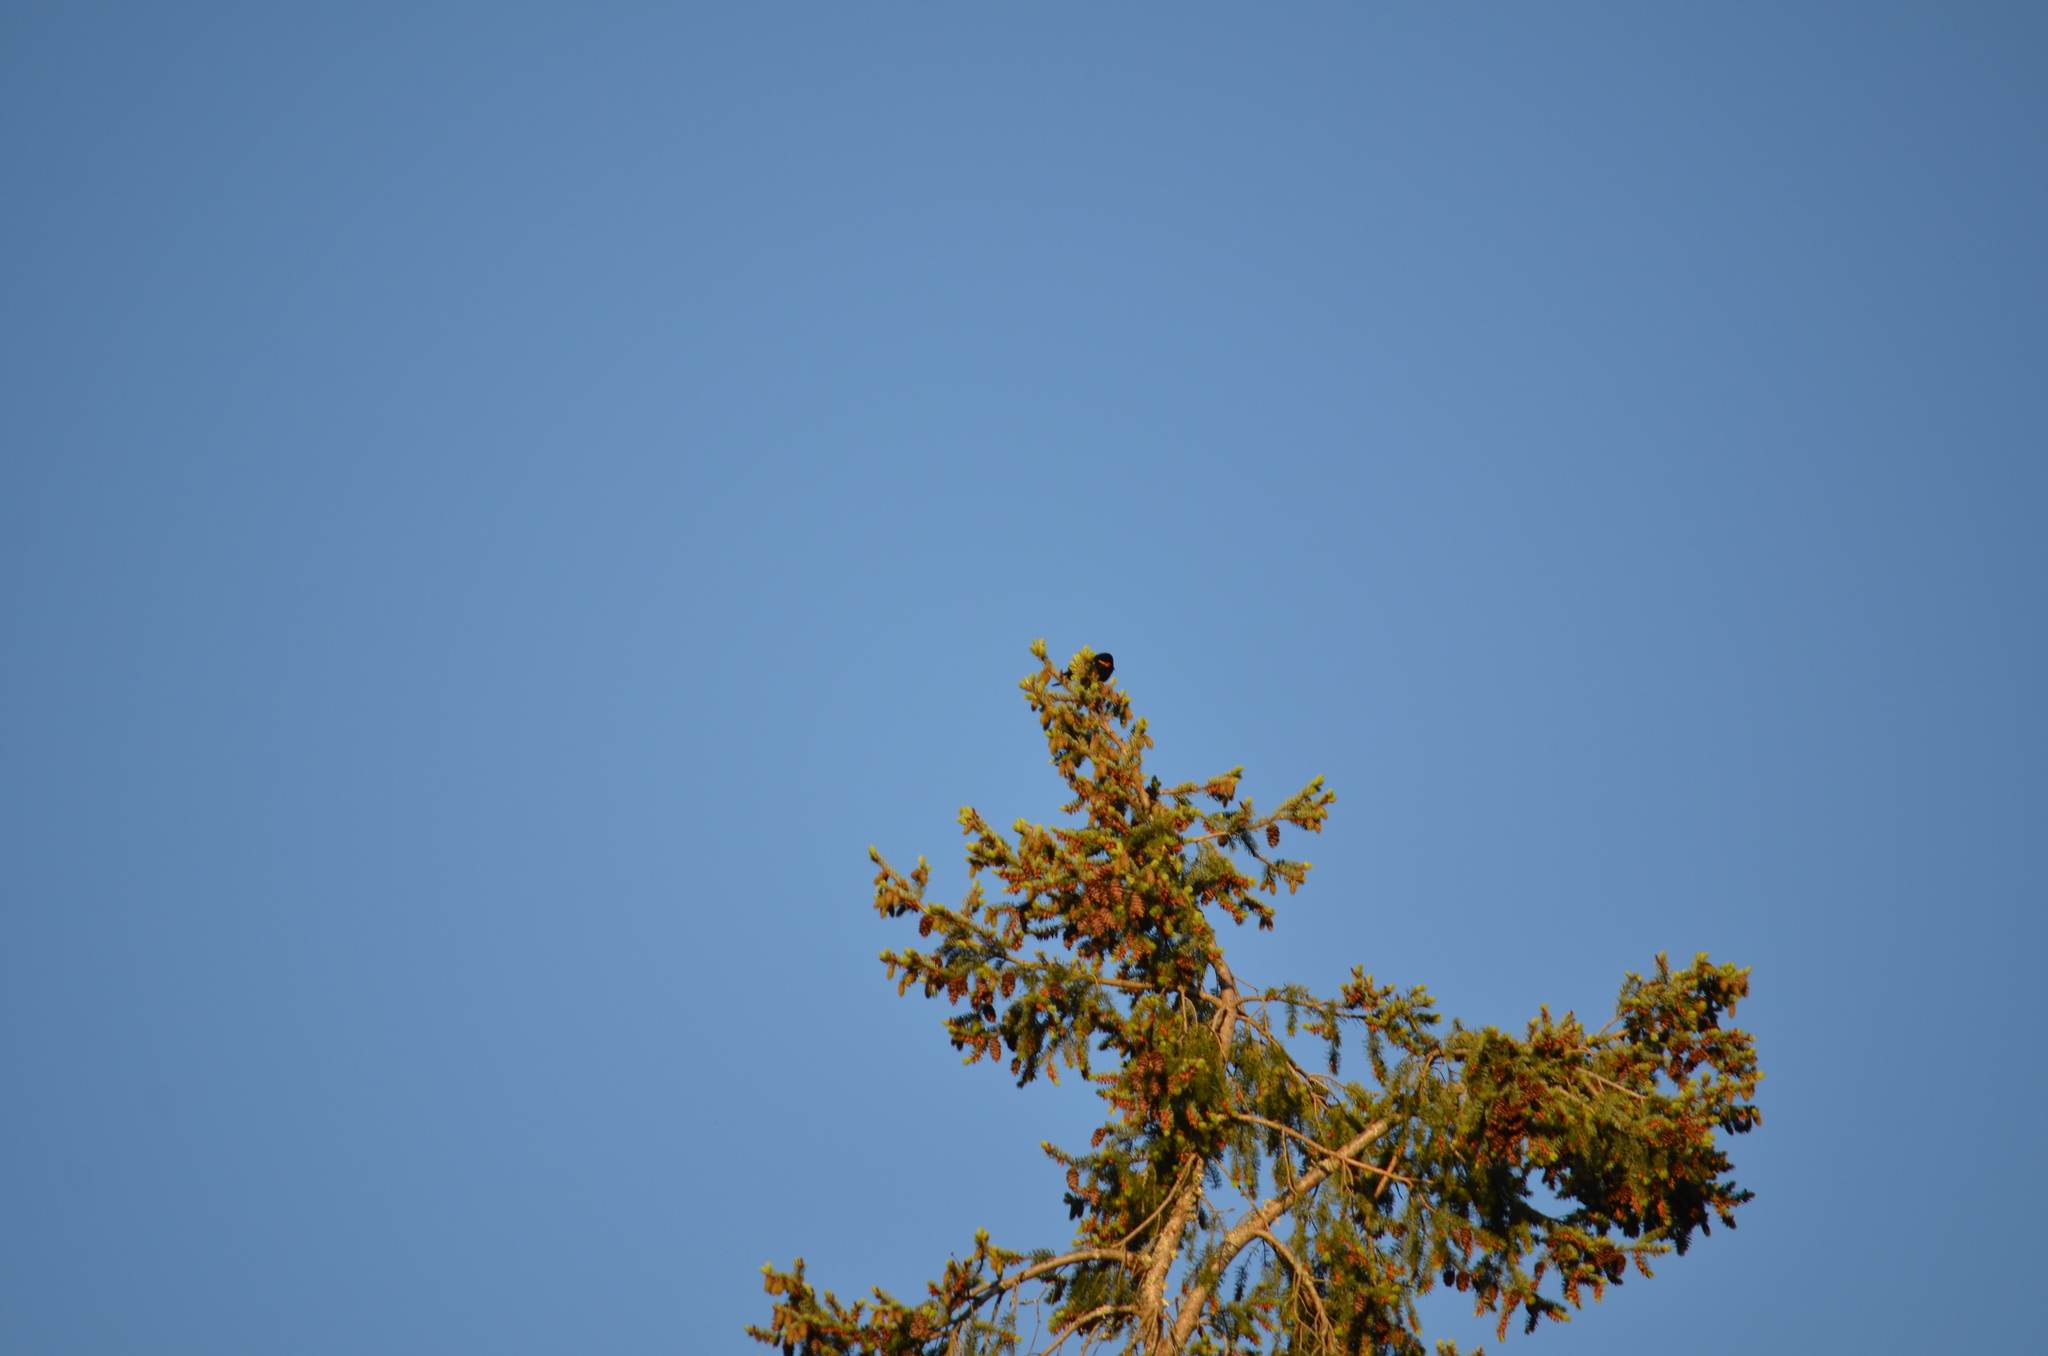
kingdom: Animalia
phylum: Chordata
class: Aves
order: Passeriformes
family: Icteridae
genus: Agelaius
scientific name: Agelaius phoeniceus
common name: Red-winged blackbird
